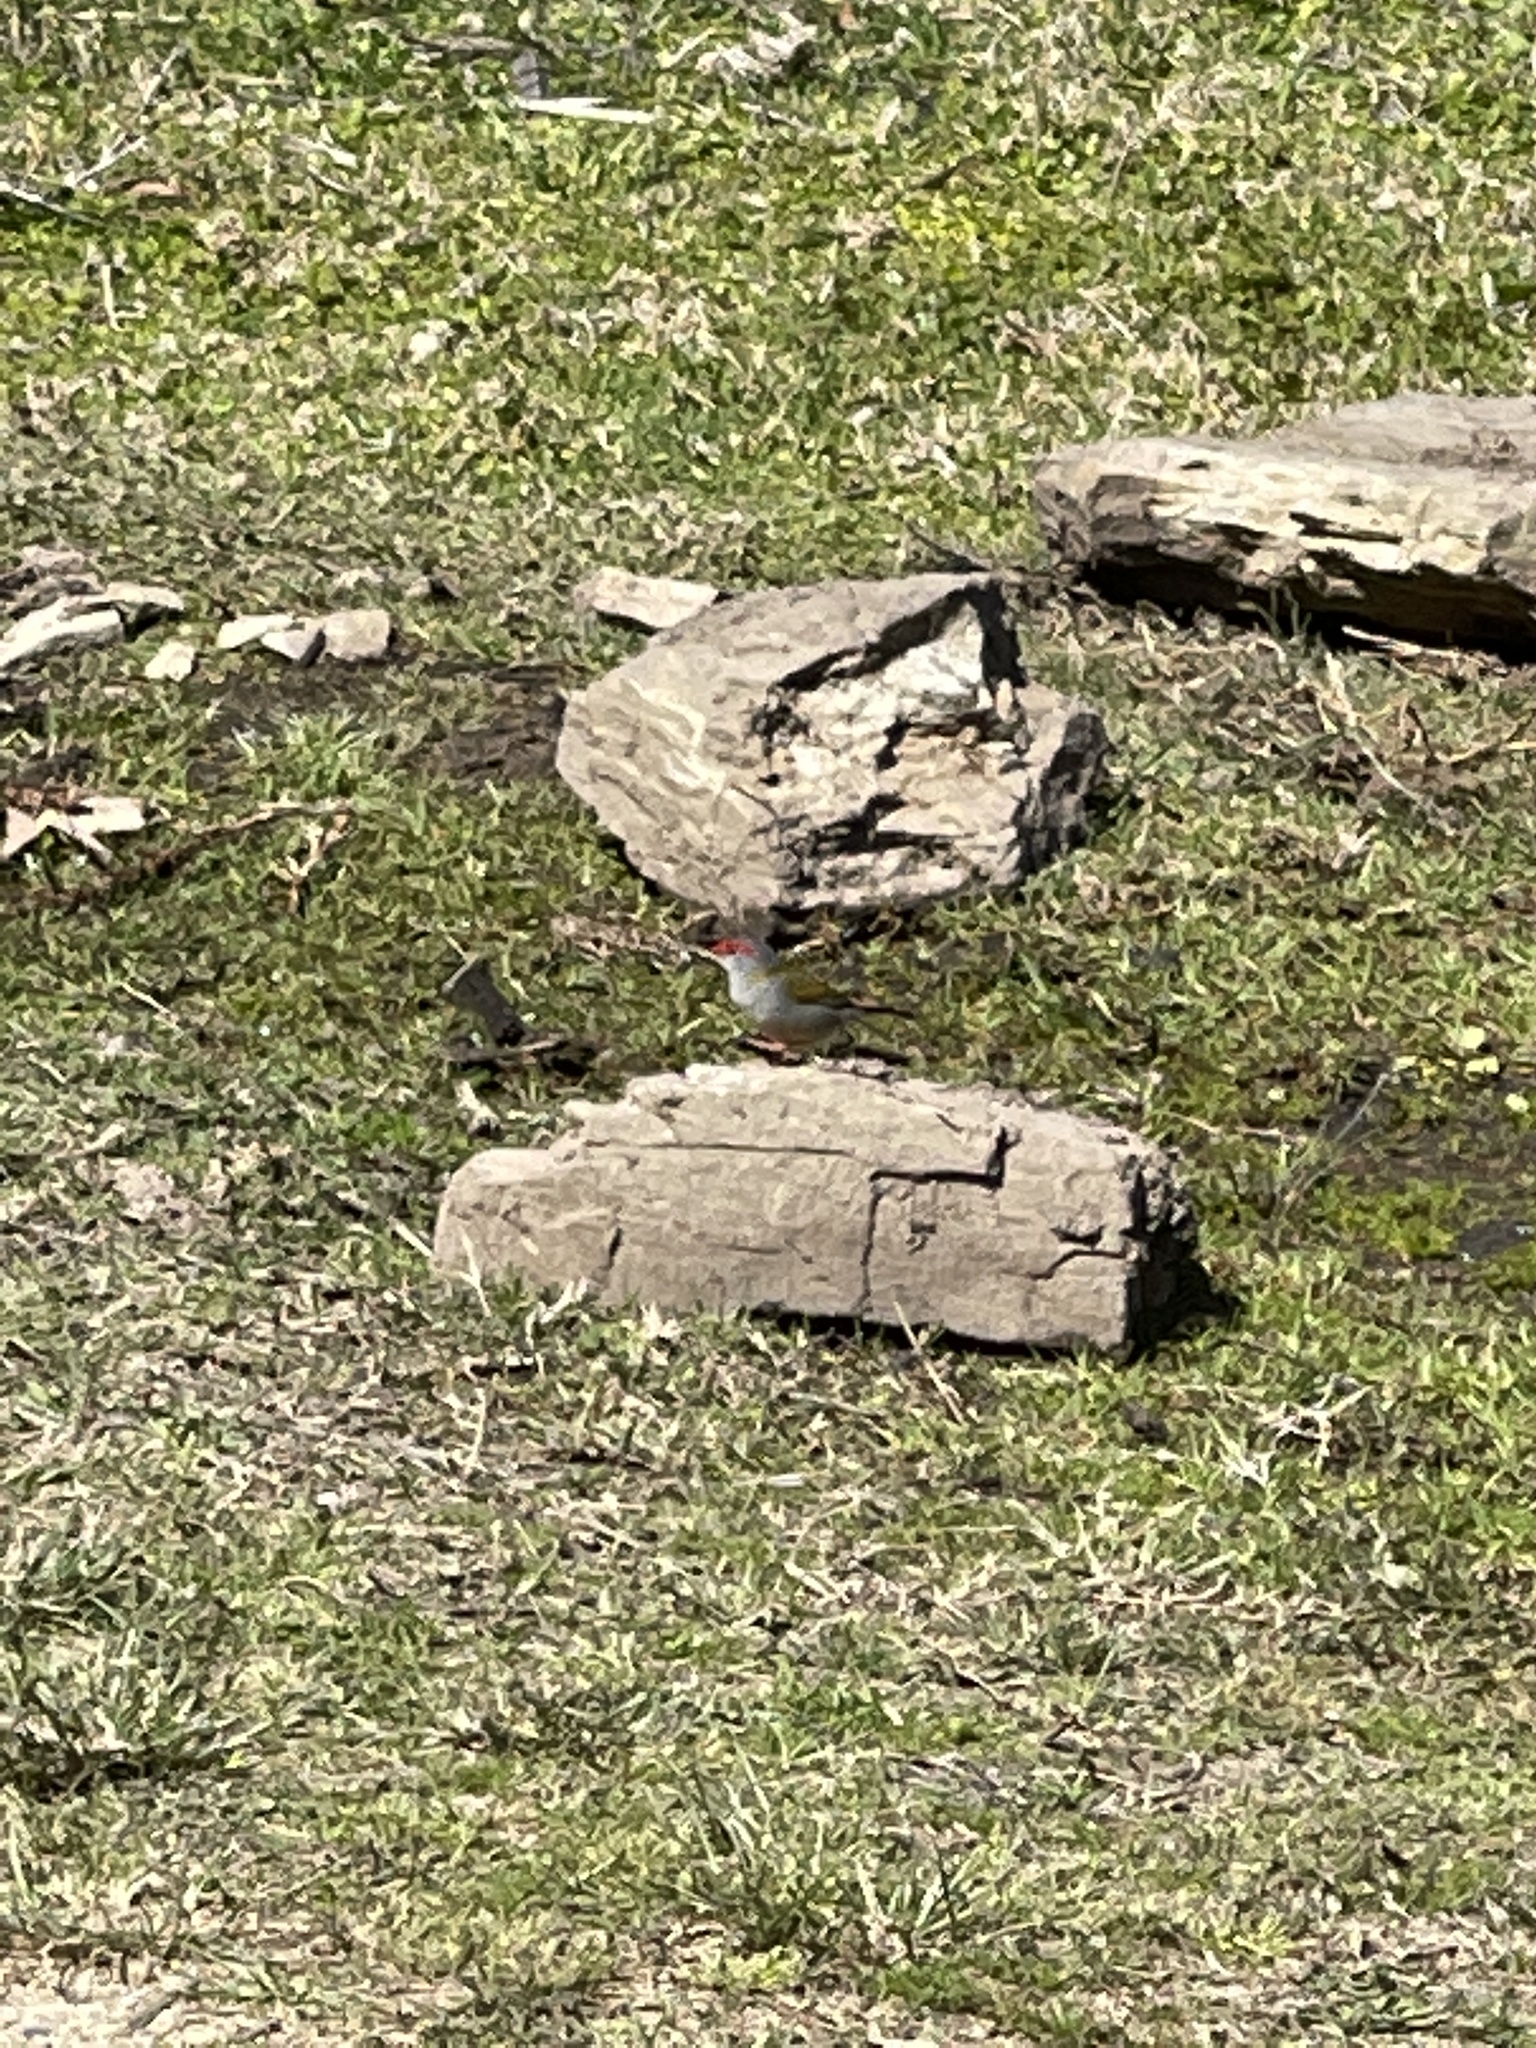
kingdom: Animalia
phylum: Chordata
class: Aves
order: Passeriformes
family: Estrildidae
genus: Neochmia
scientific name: Neochmia temporalis
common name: Red-browed finch
